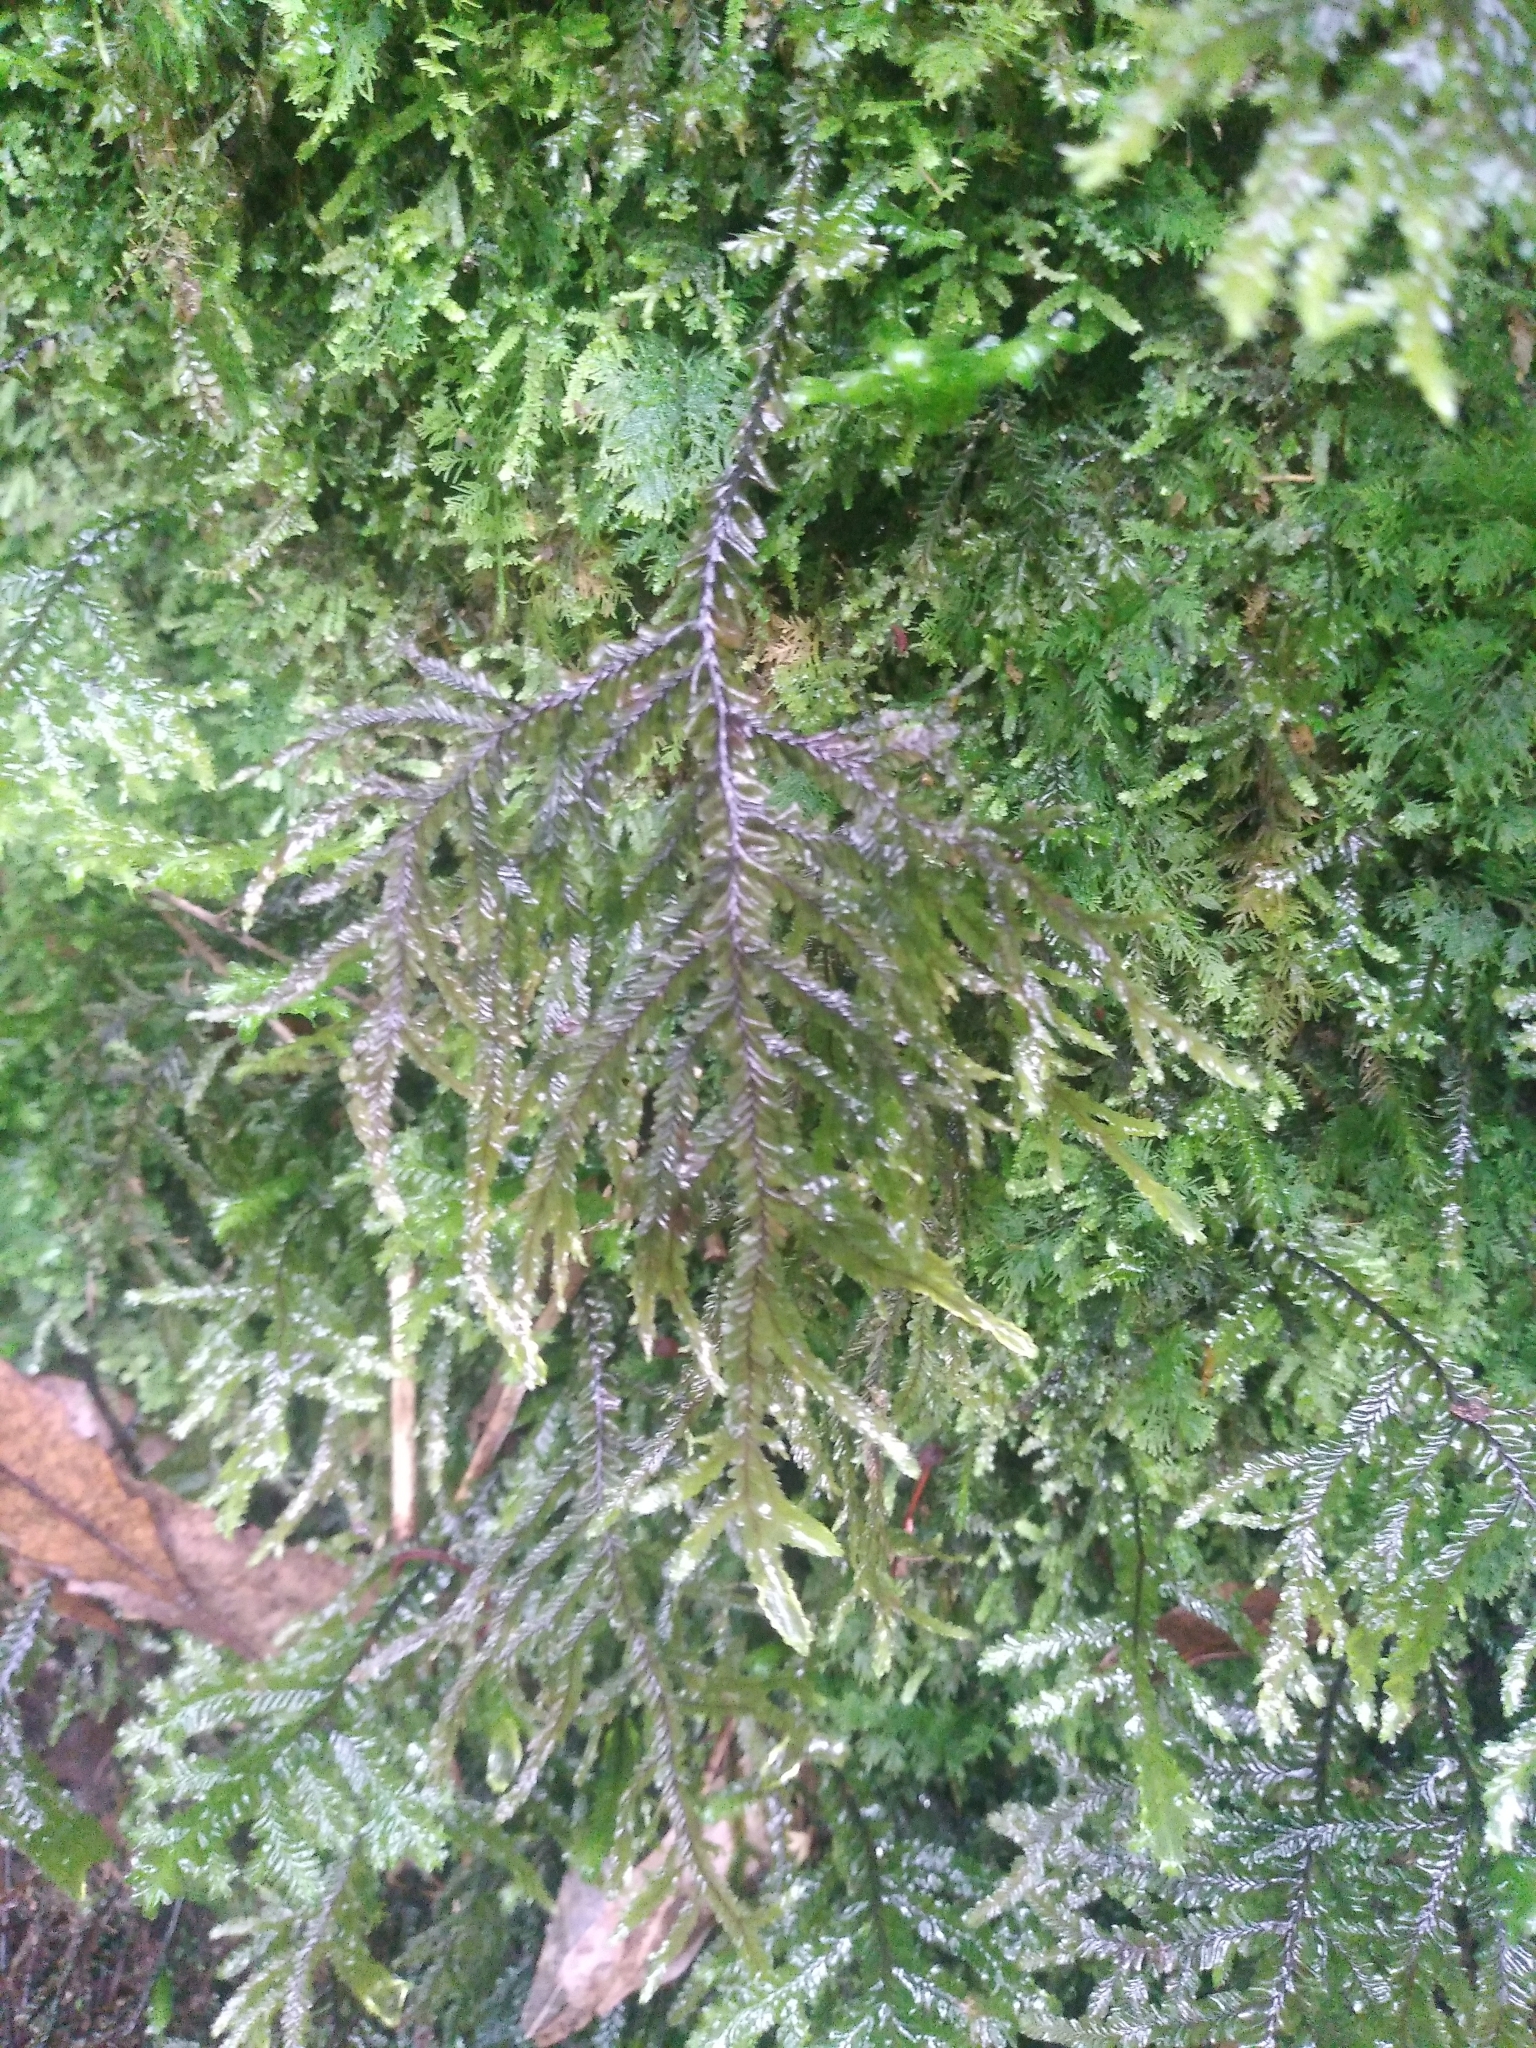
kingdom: Plantae
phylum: Marchantiophyta
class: Jungermanniopsida
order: Jungermanniales
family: Plagiochilaceae
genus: Plagiochila
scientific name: Plagiochila stephensoniana
